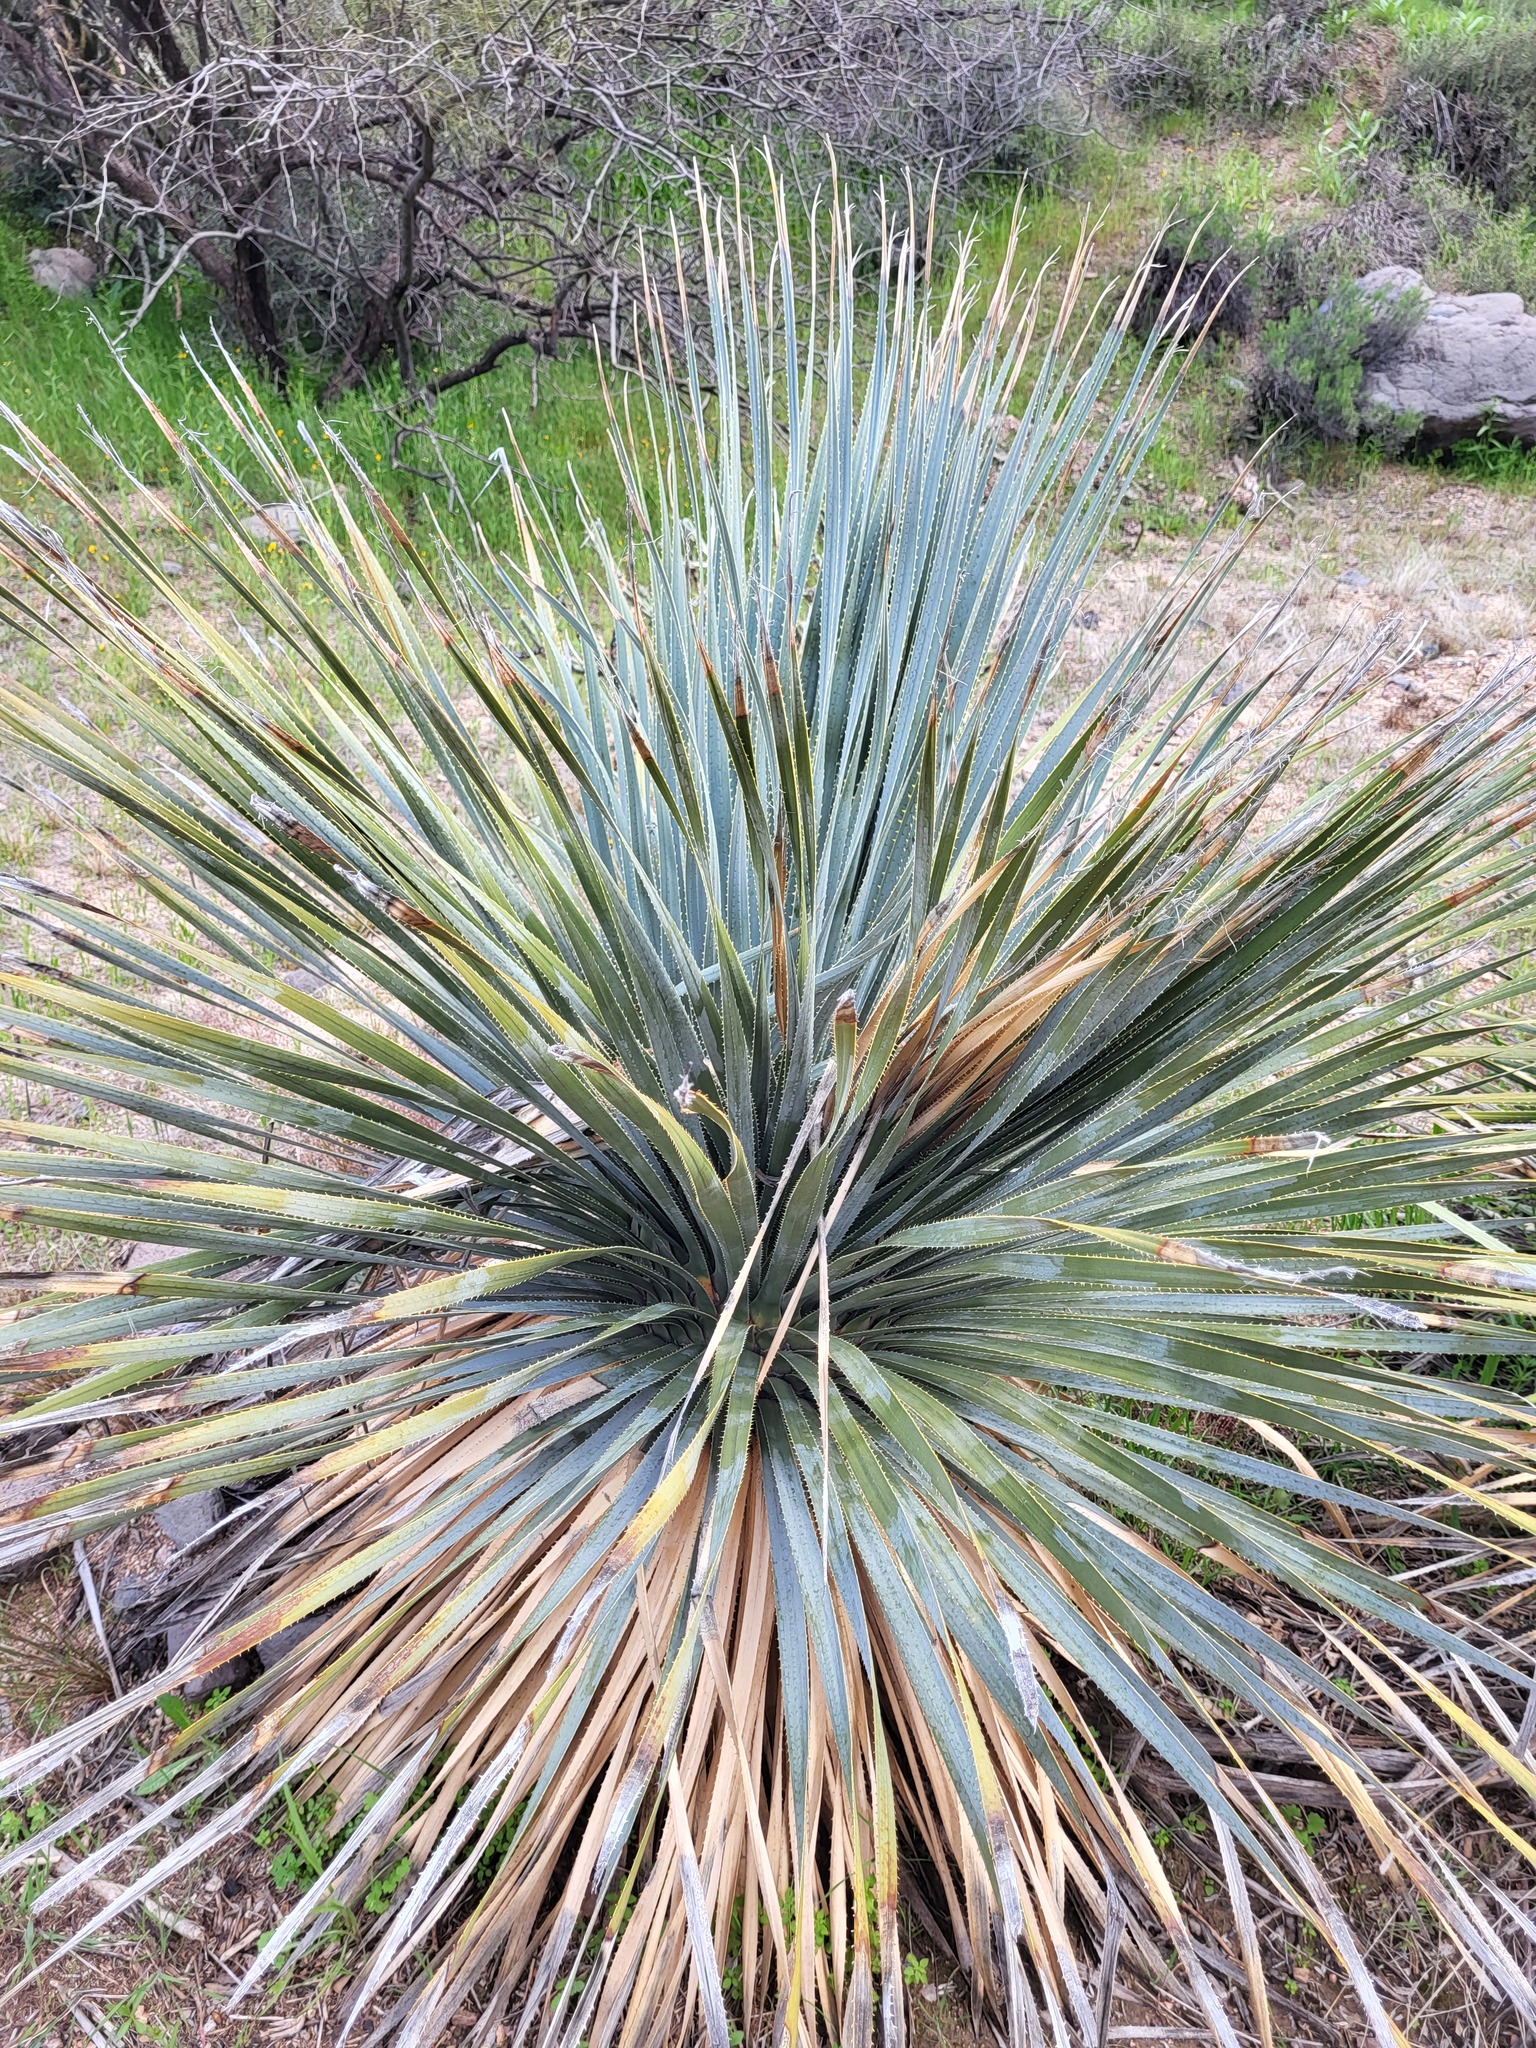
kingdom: Plantae
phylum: Tracheophyta
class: Liliopsida
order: Asparagales
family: Asparagaceae
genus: Dasylirion
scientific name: Dasylirion wheeleri
